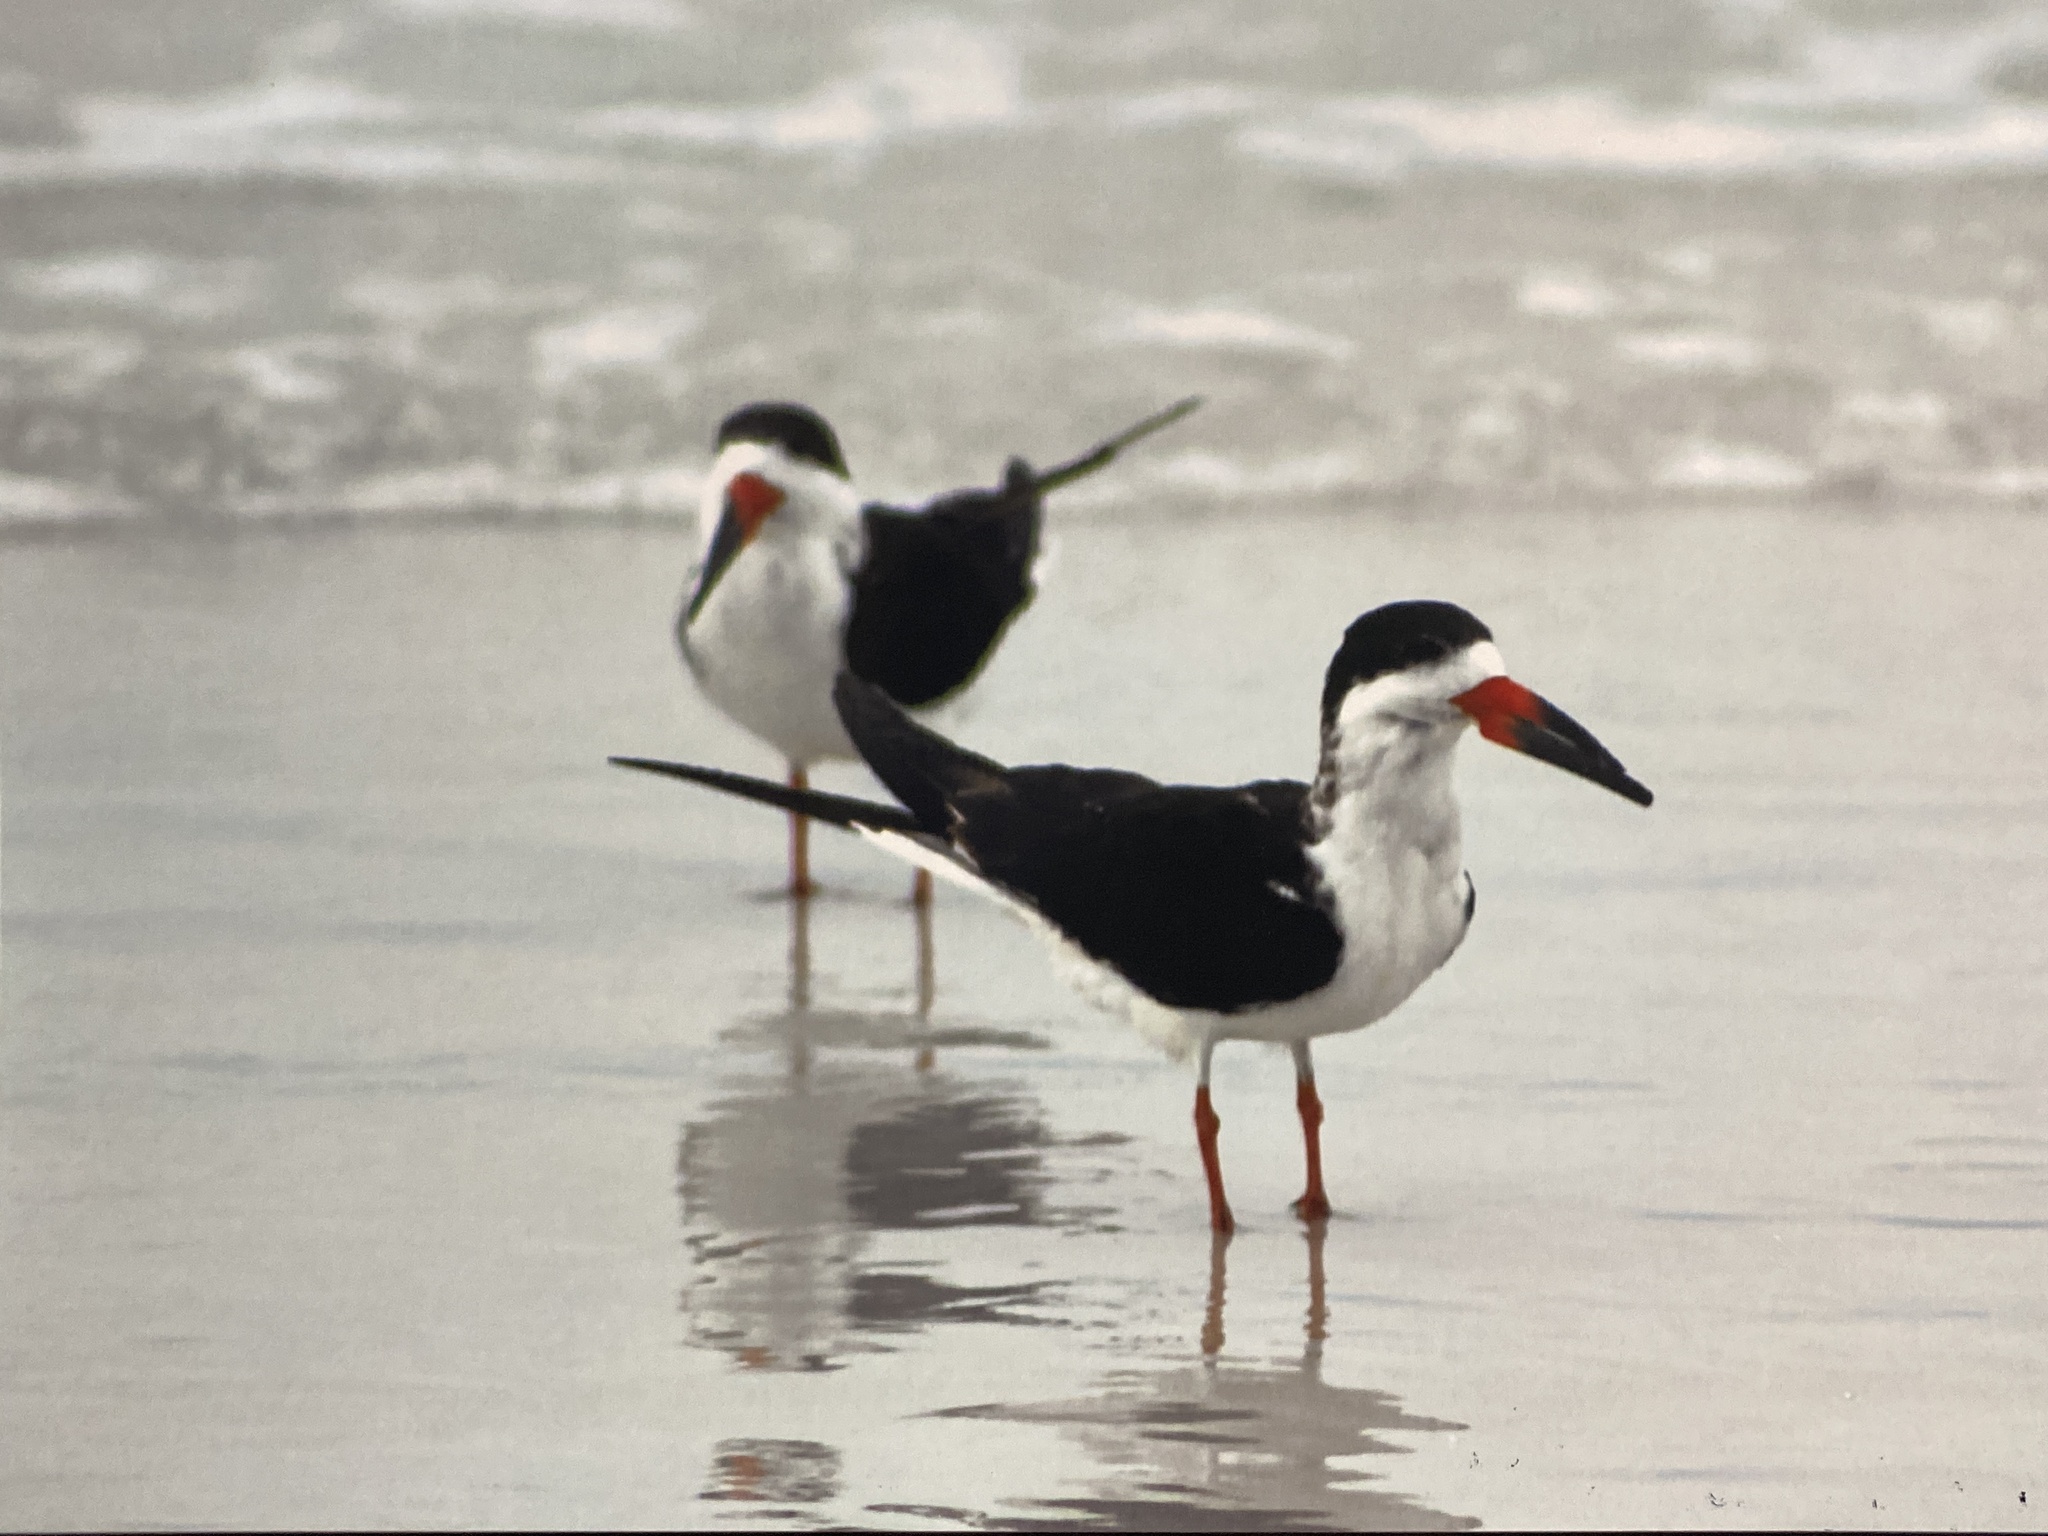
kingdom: Animalia
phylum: Chordata
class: Aves
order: Charadriiformes
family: Laridae
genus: Rynchops
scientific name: Rynchops niger
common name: Black skimmer
